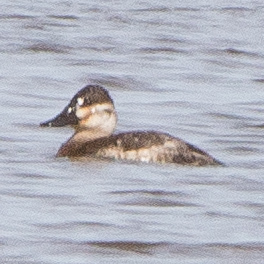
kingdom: Animalia
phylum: Chordata
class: Aves
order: Anseriformes
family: Anatidae
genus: Oxyura
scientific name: Oxyura jamaicensis
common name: Ruddy duck
